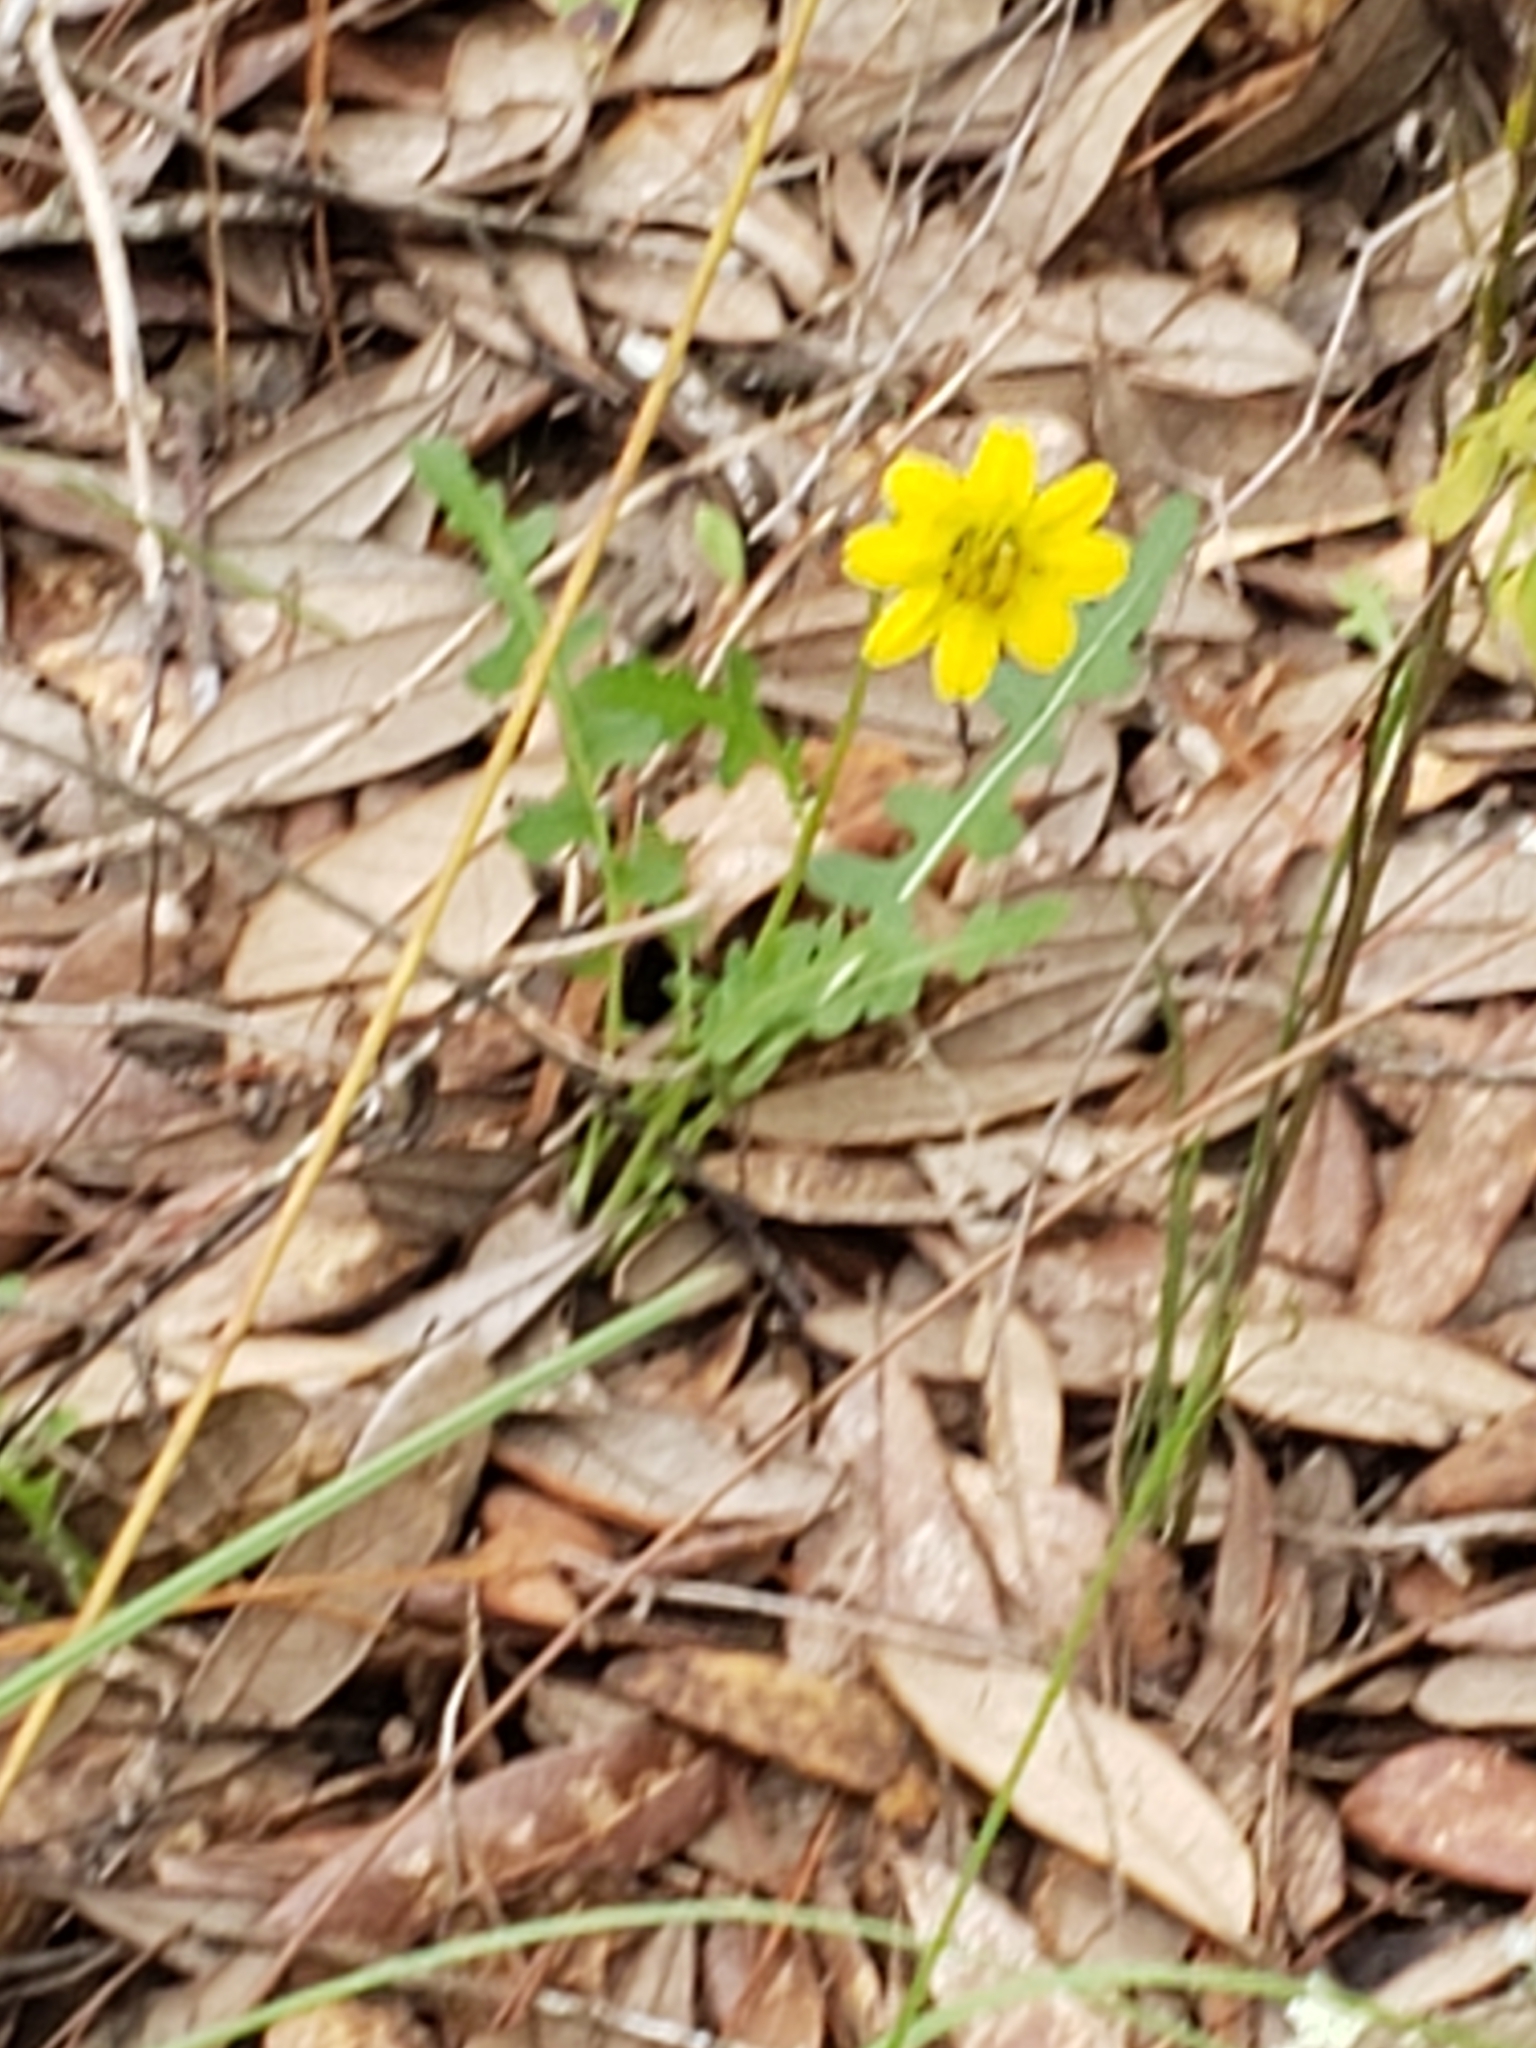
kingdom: Plantae
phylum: Tracheophyta
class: Magnoliopsida
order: Asterales
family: Asteraceae
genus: Berlandiera
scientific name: Berlandiera subacaulis
